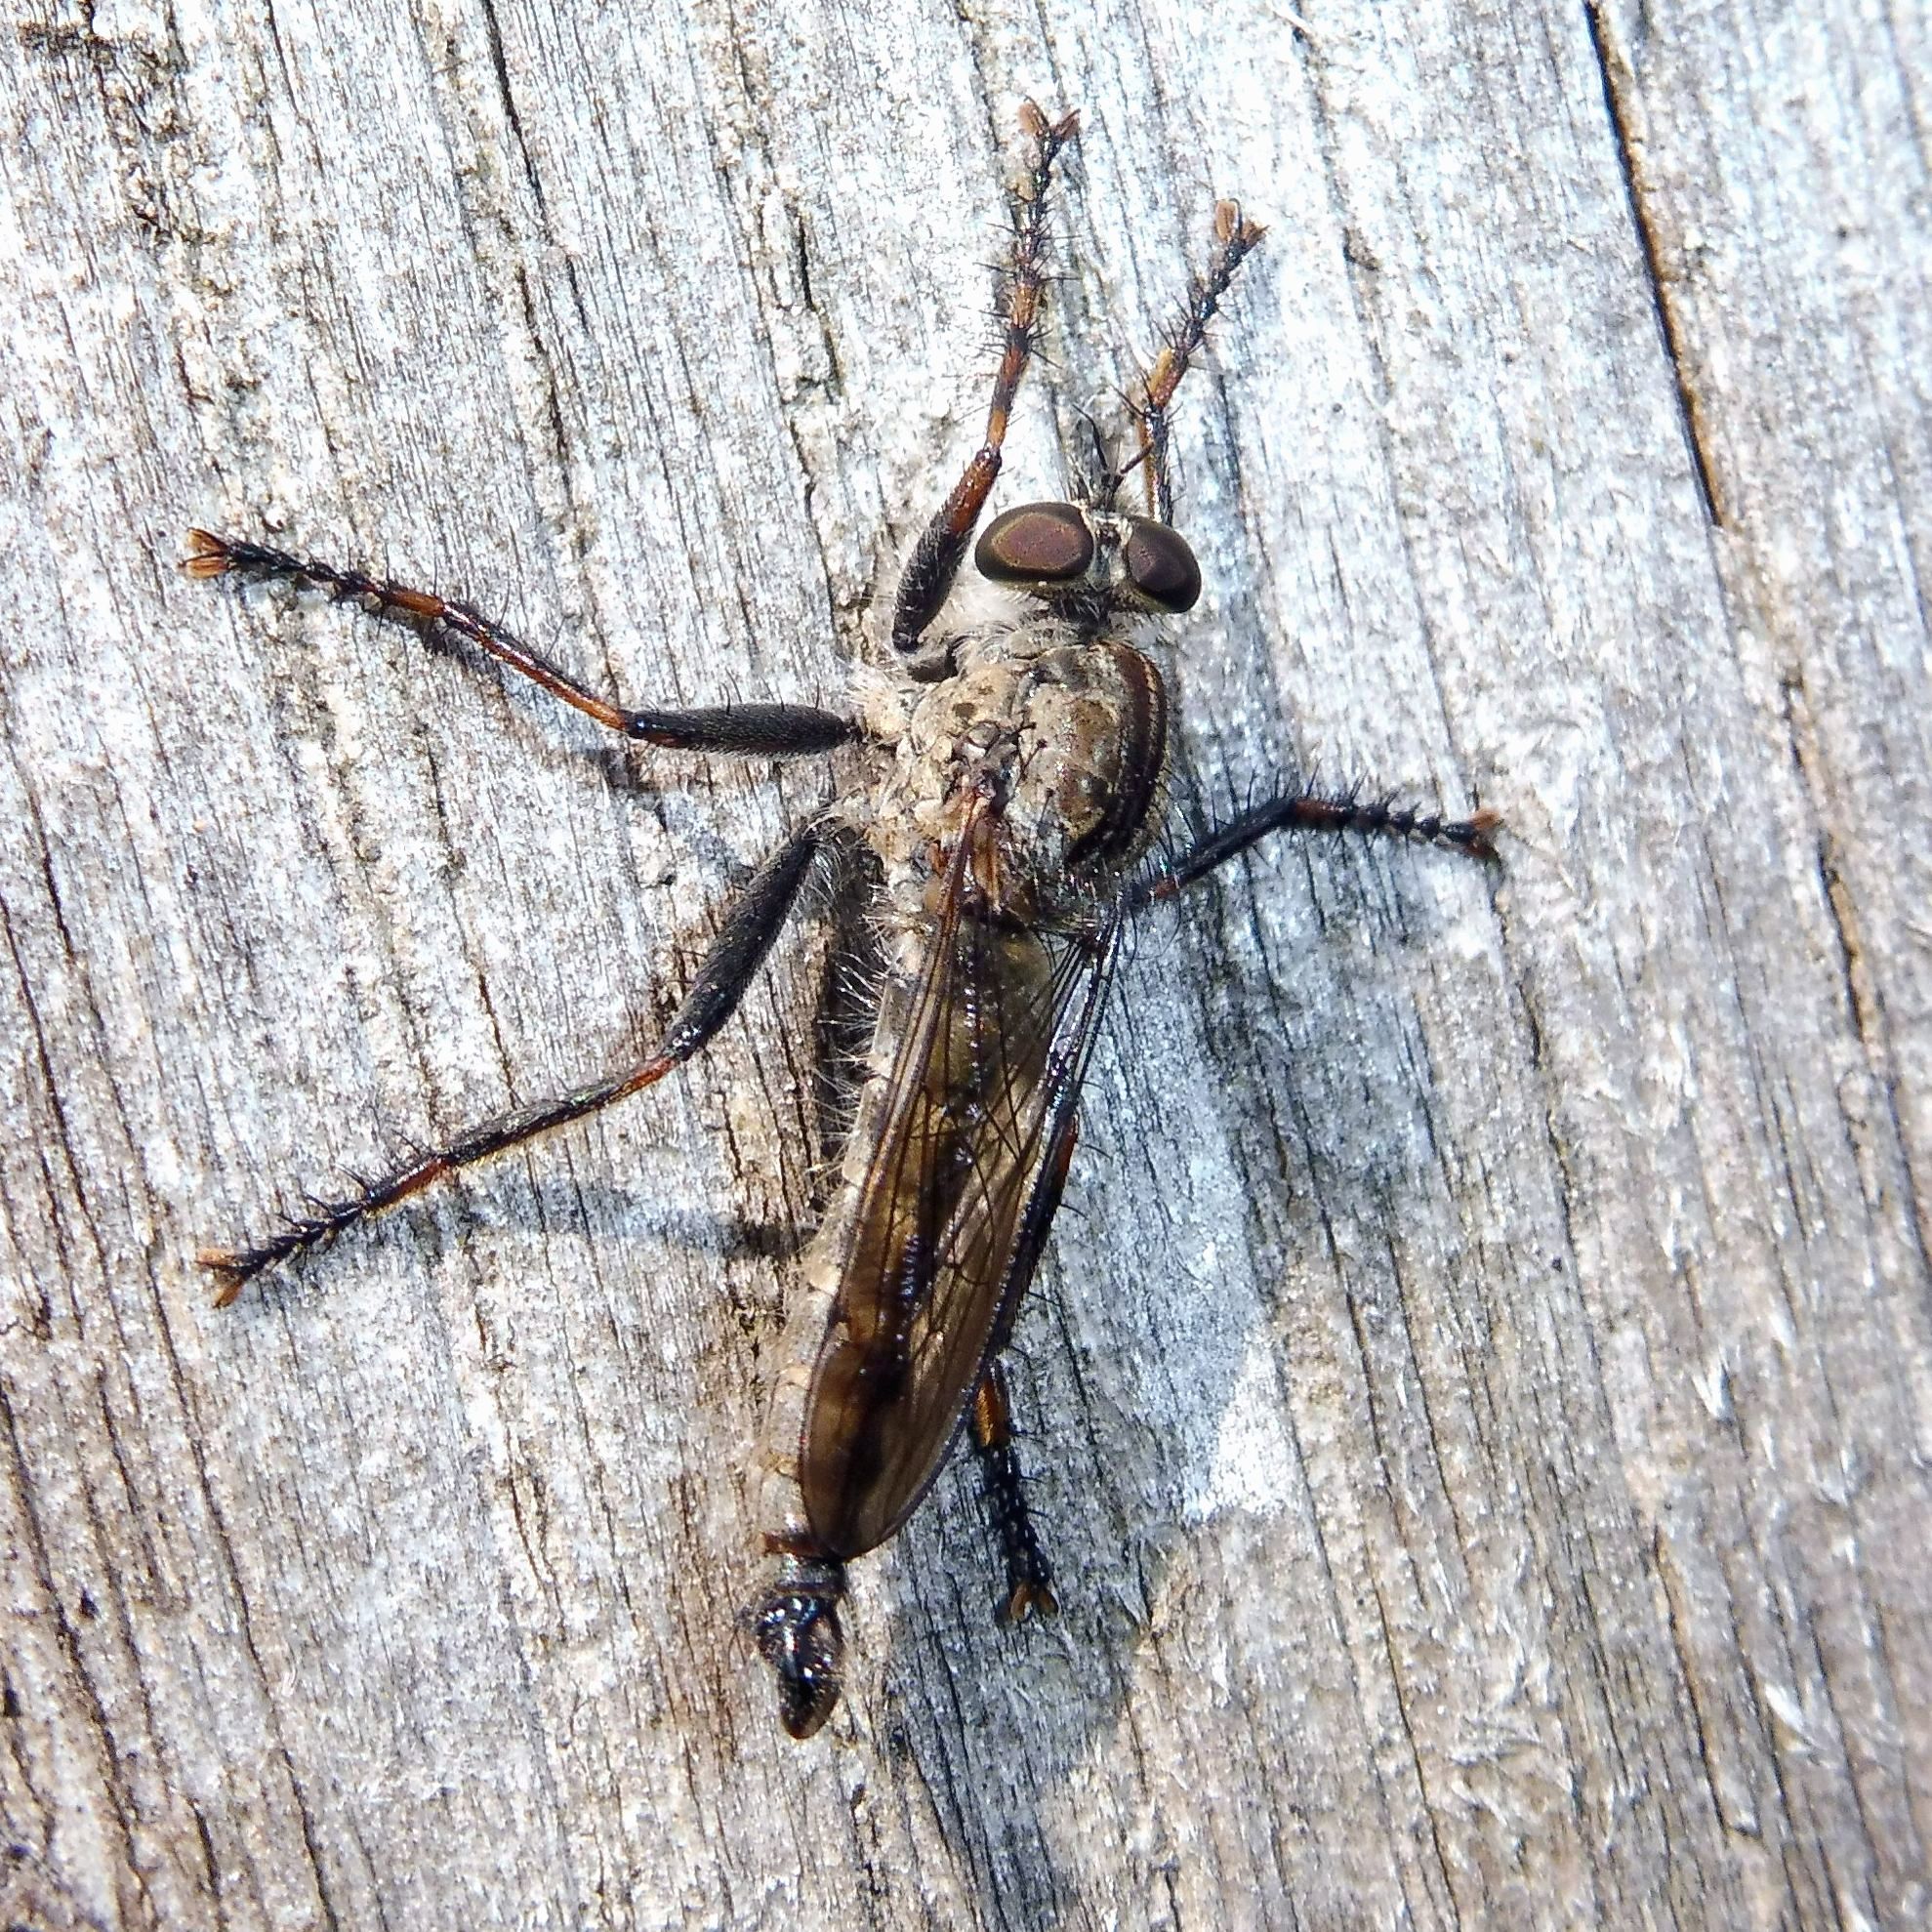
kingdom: Animalia
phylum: Arthropoda
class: Insecta
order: Diptera
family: Asilidae
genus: Machimus
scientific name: Machimus atricapillus
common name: Kite-tailed robberfly
